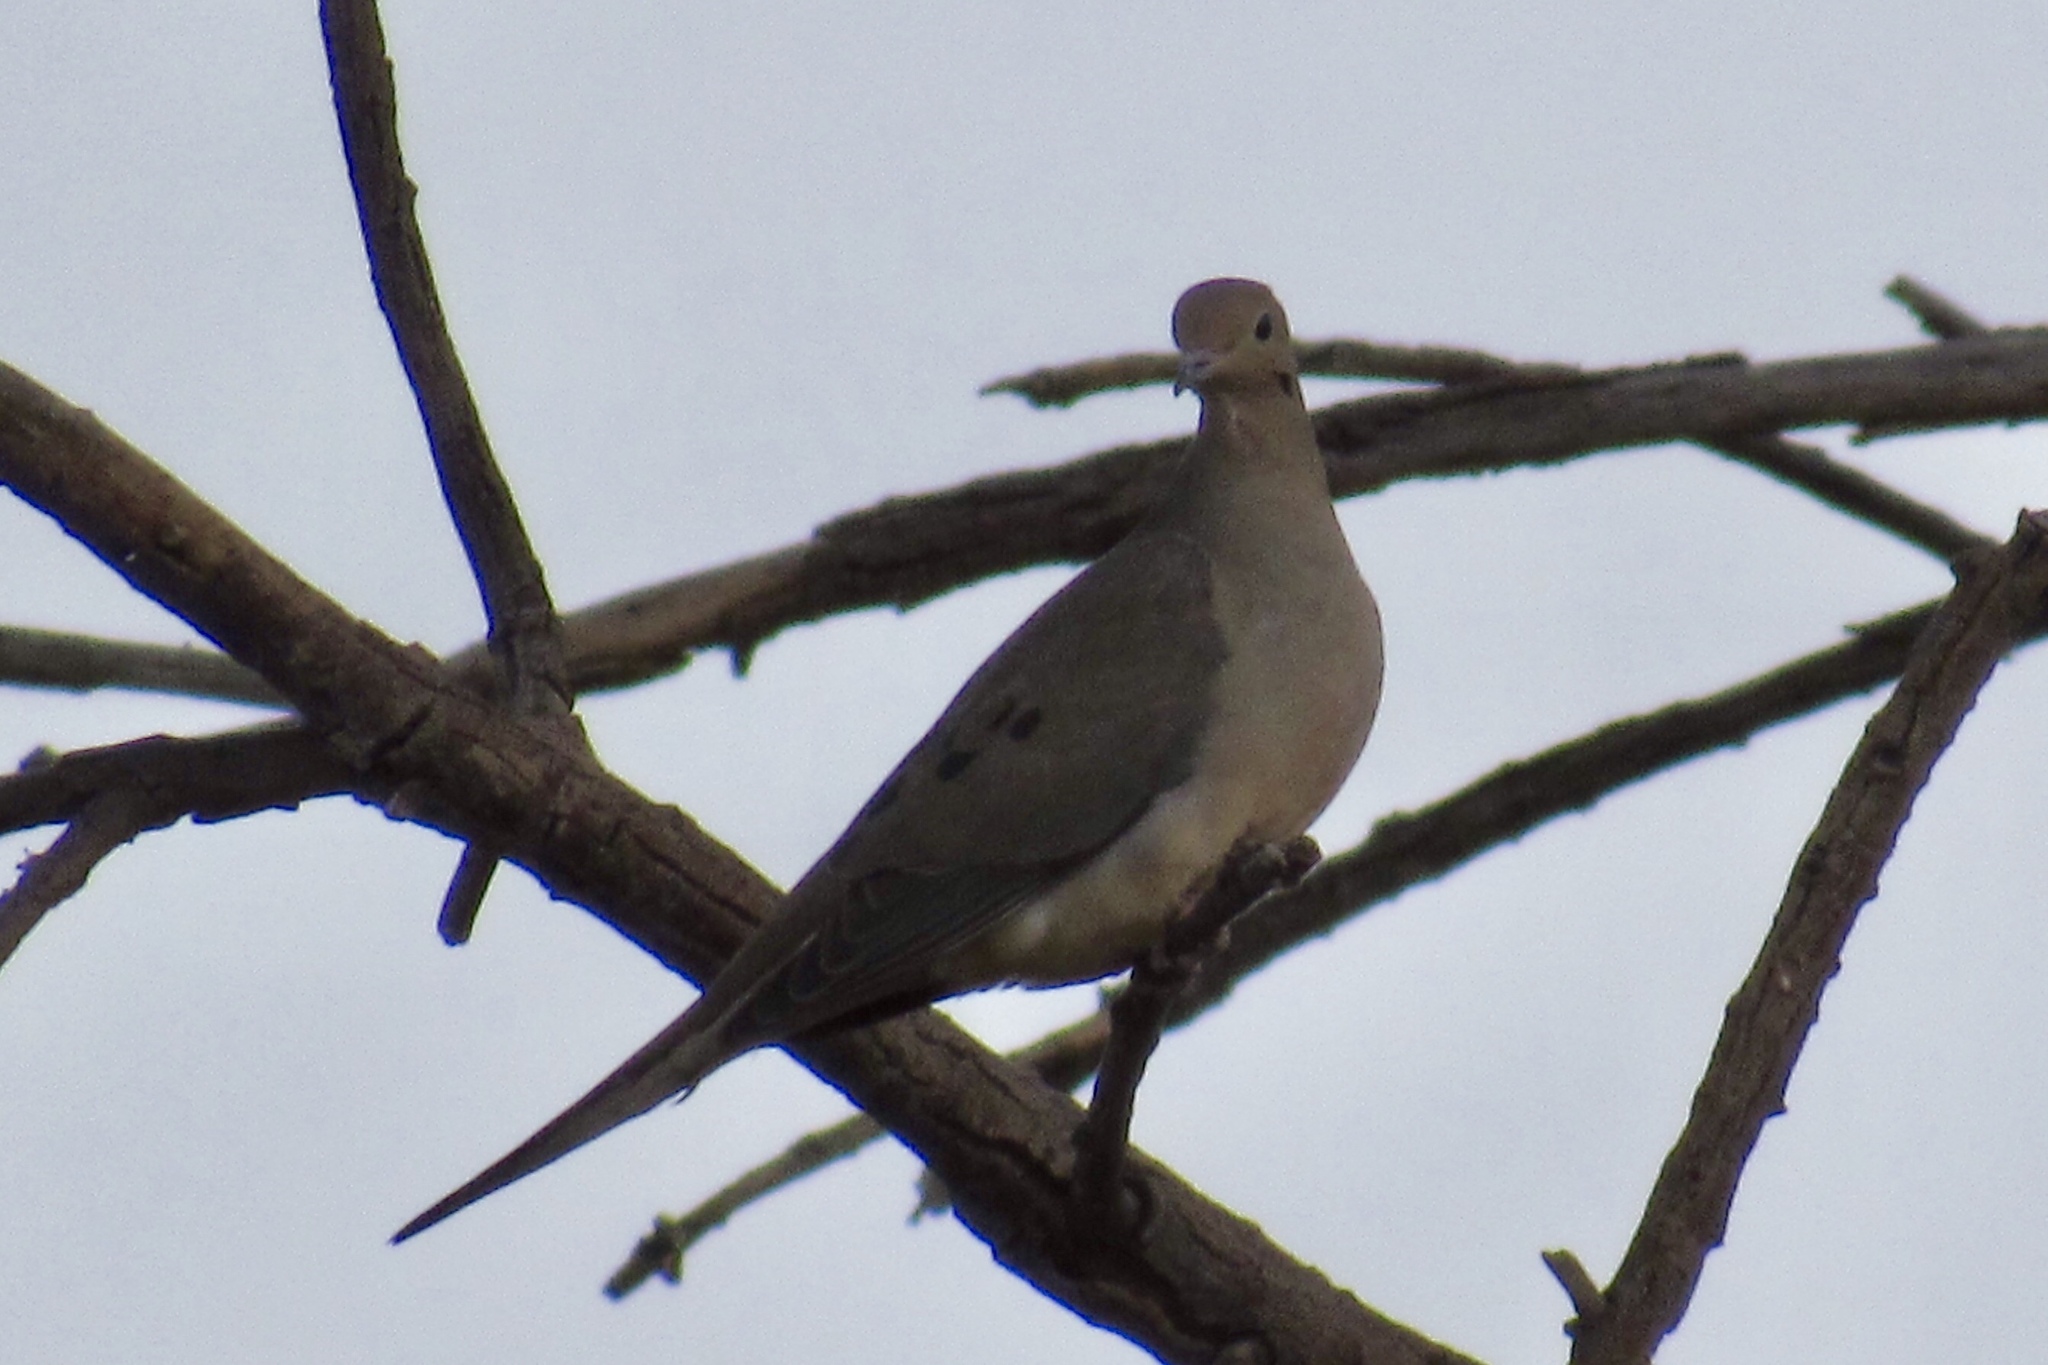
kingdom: Animalia
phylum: Chordata
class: Aves
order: Columbiformes
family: Columbidae
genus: Zenaida
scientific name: Zenaida macroura
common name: Mourning dove
